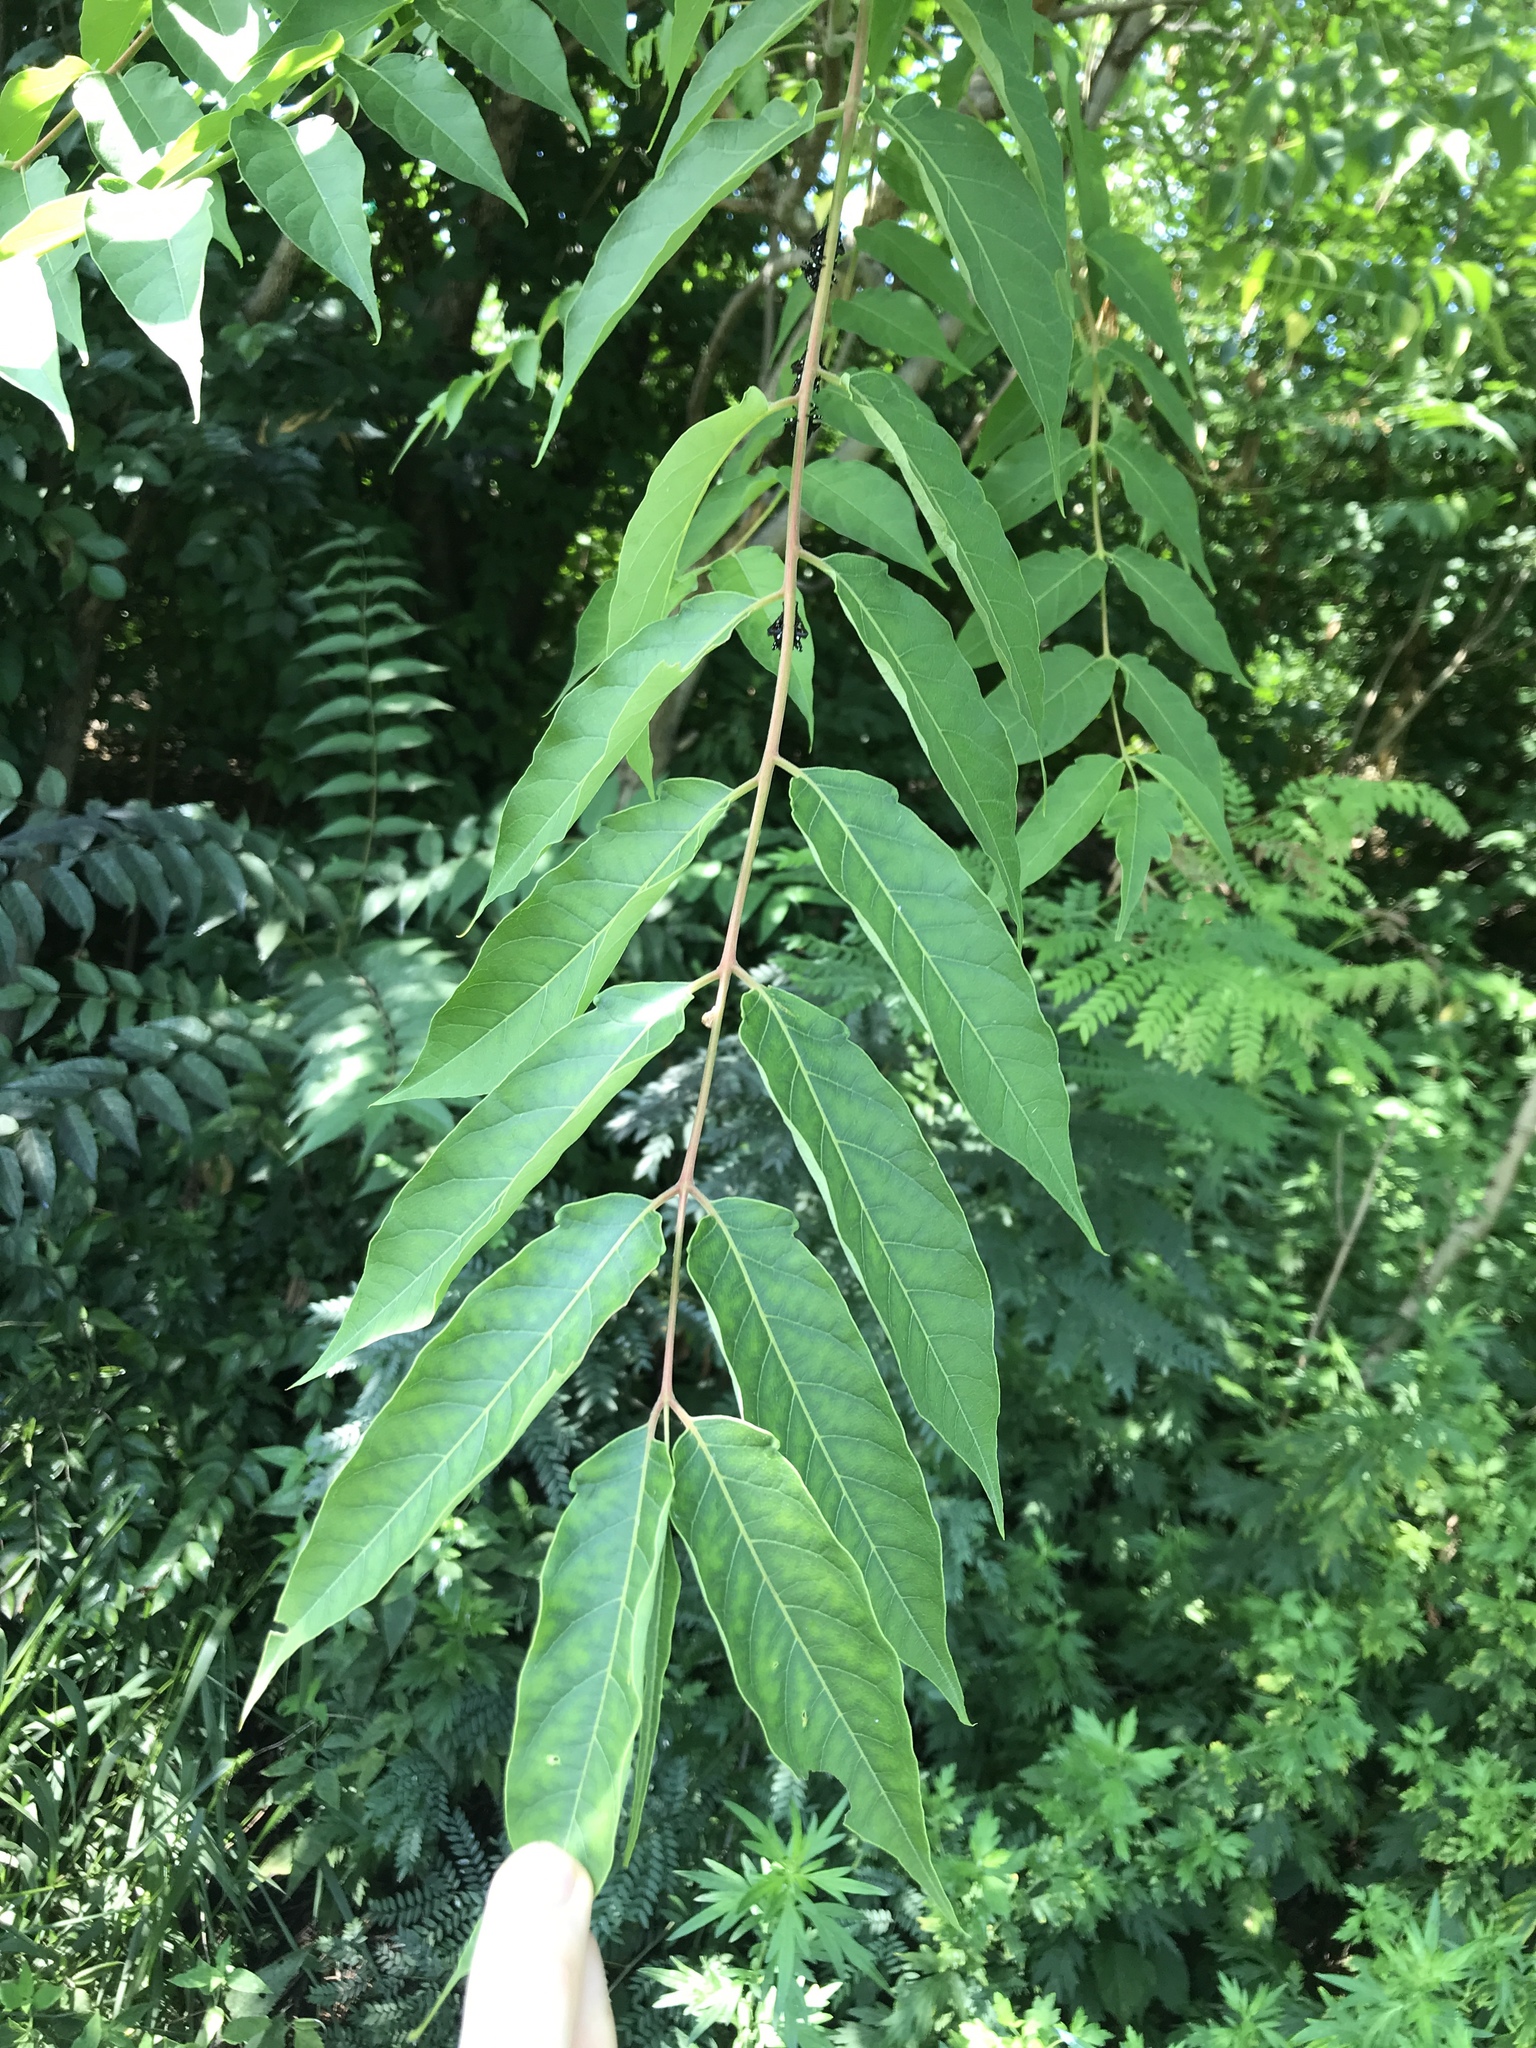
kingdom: Plantae
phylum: Tracheophyta
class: Magnoliopsida
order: Sapindales
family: Simaroubaceae
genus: Ailanthus
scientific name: Ailanthus altissima
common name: Tree-of-heaven
